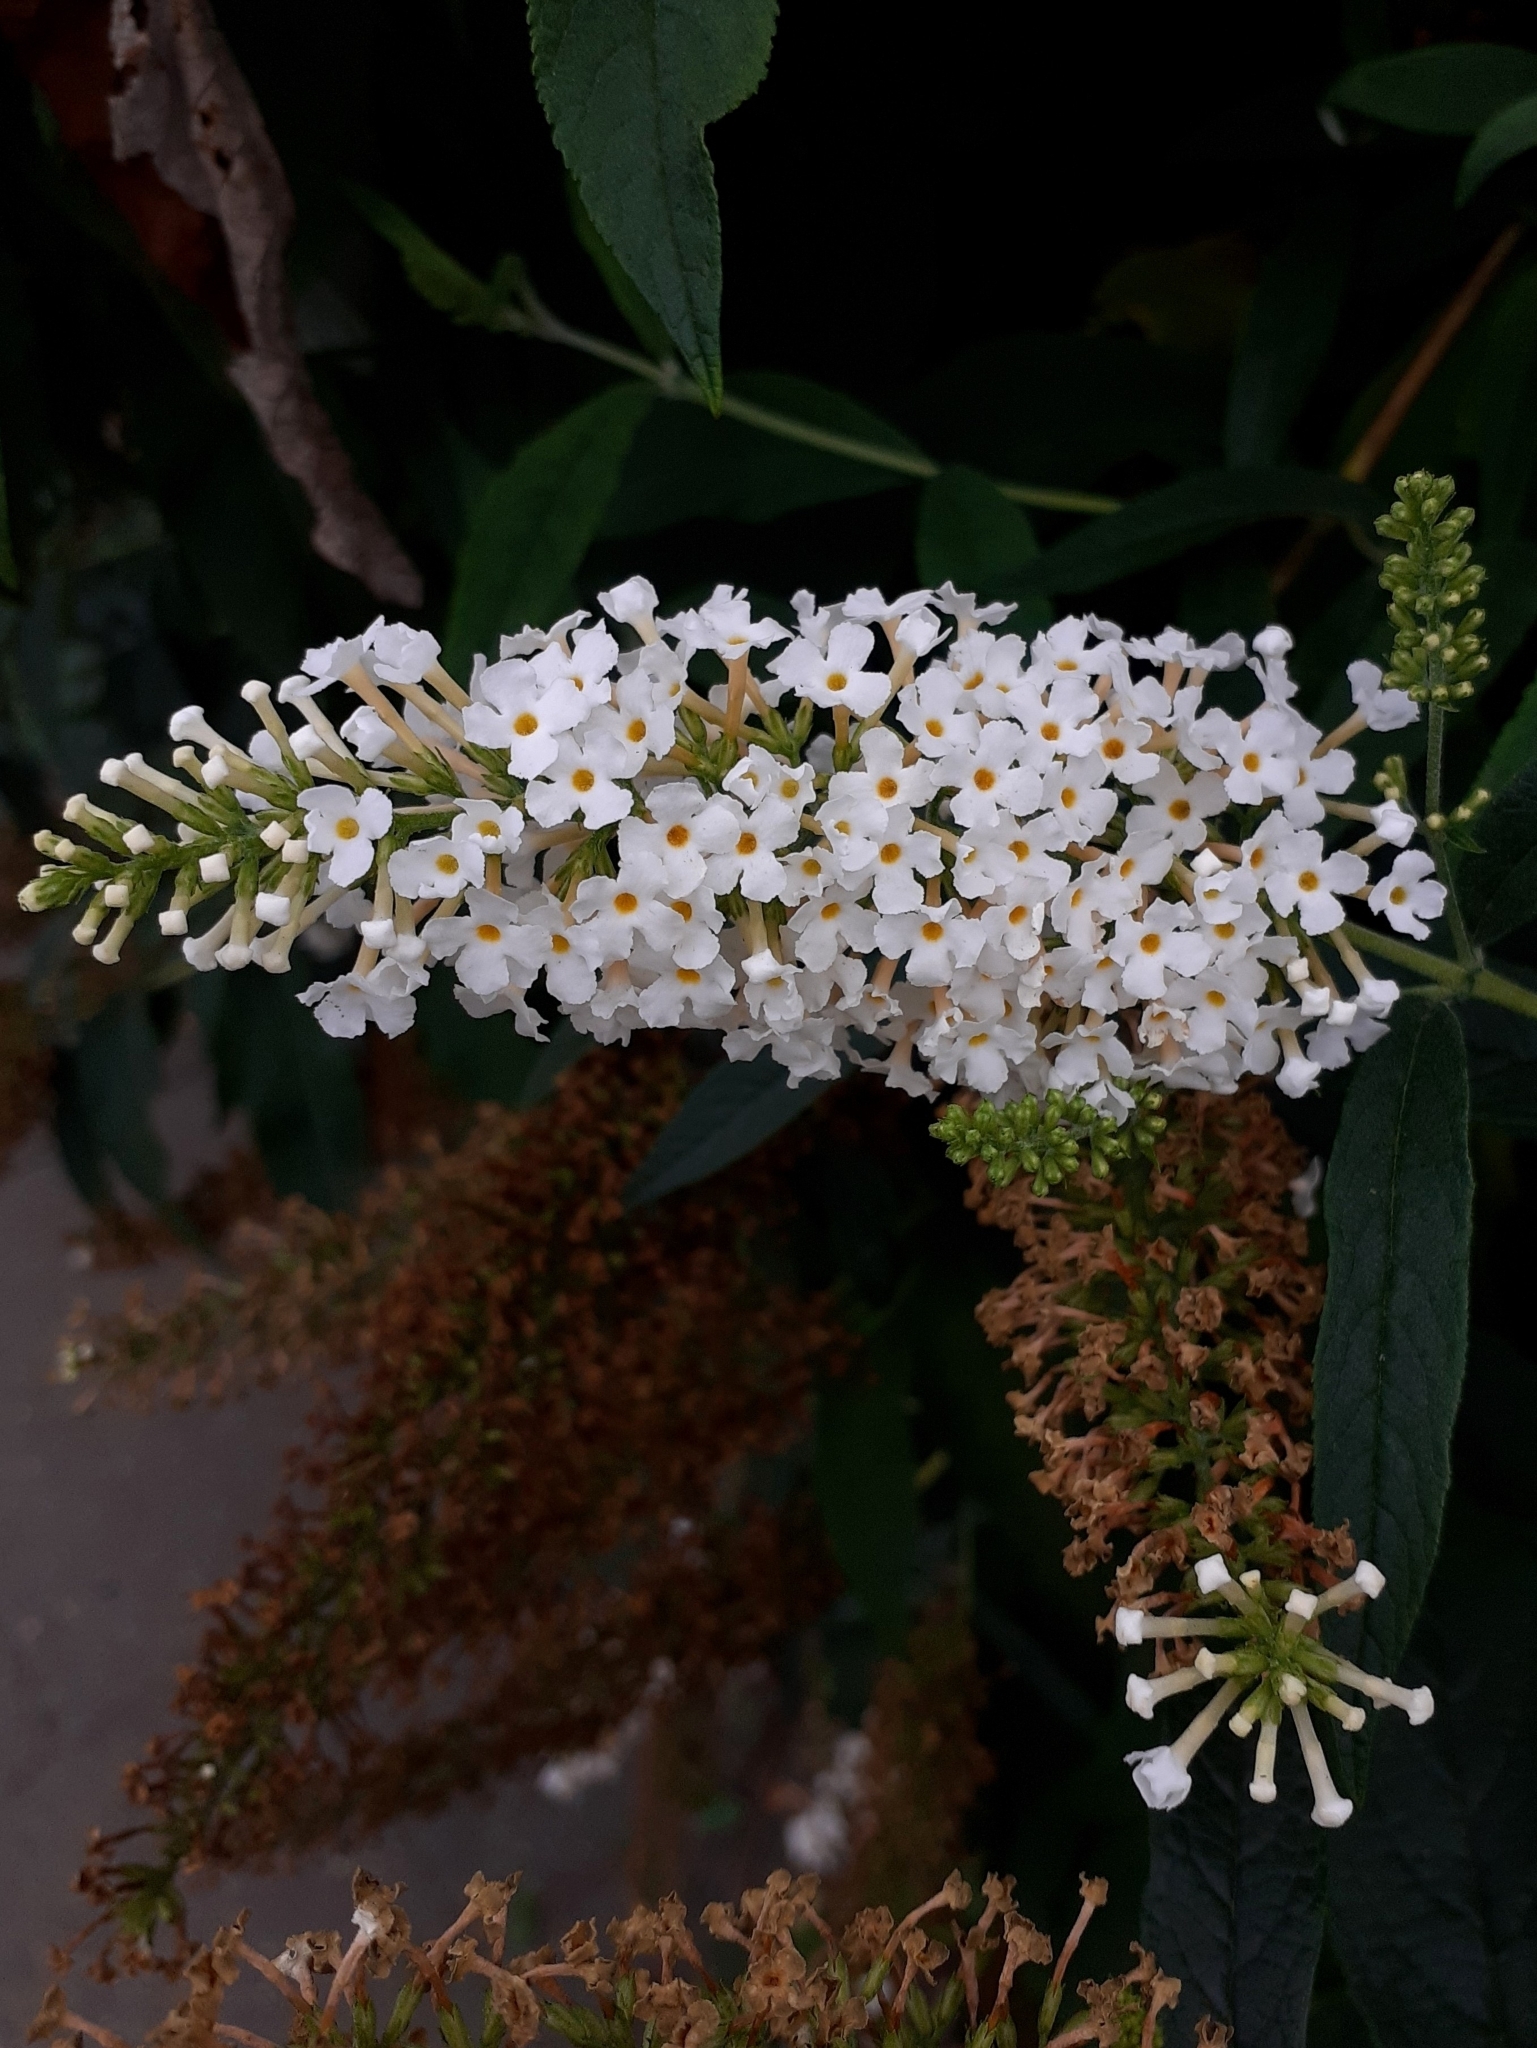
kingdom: Plantae
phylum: Tracheophyta
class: Magnoliopsida
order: Lamiales
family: Scrophulariaceae
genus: Buddleja
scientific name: Buddleja davidii
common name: Butterfly-bush
